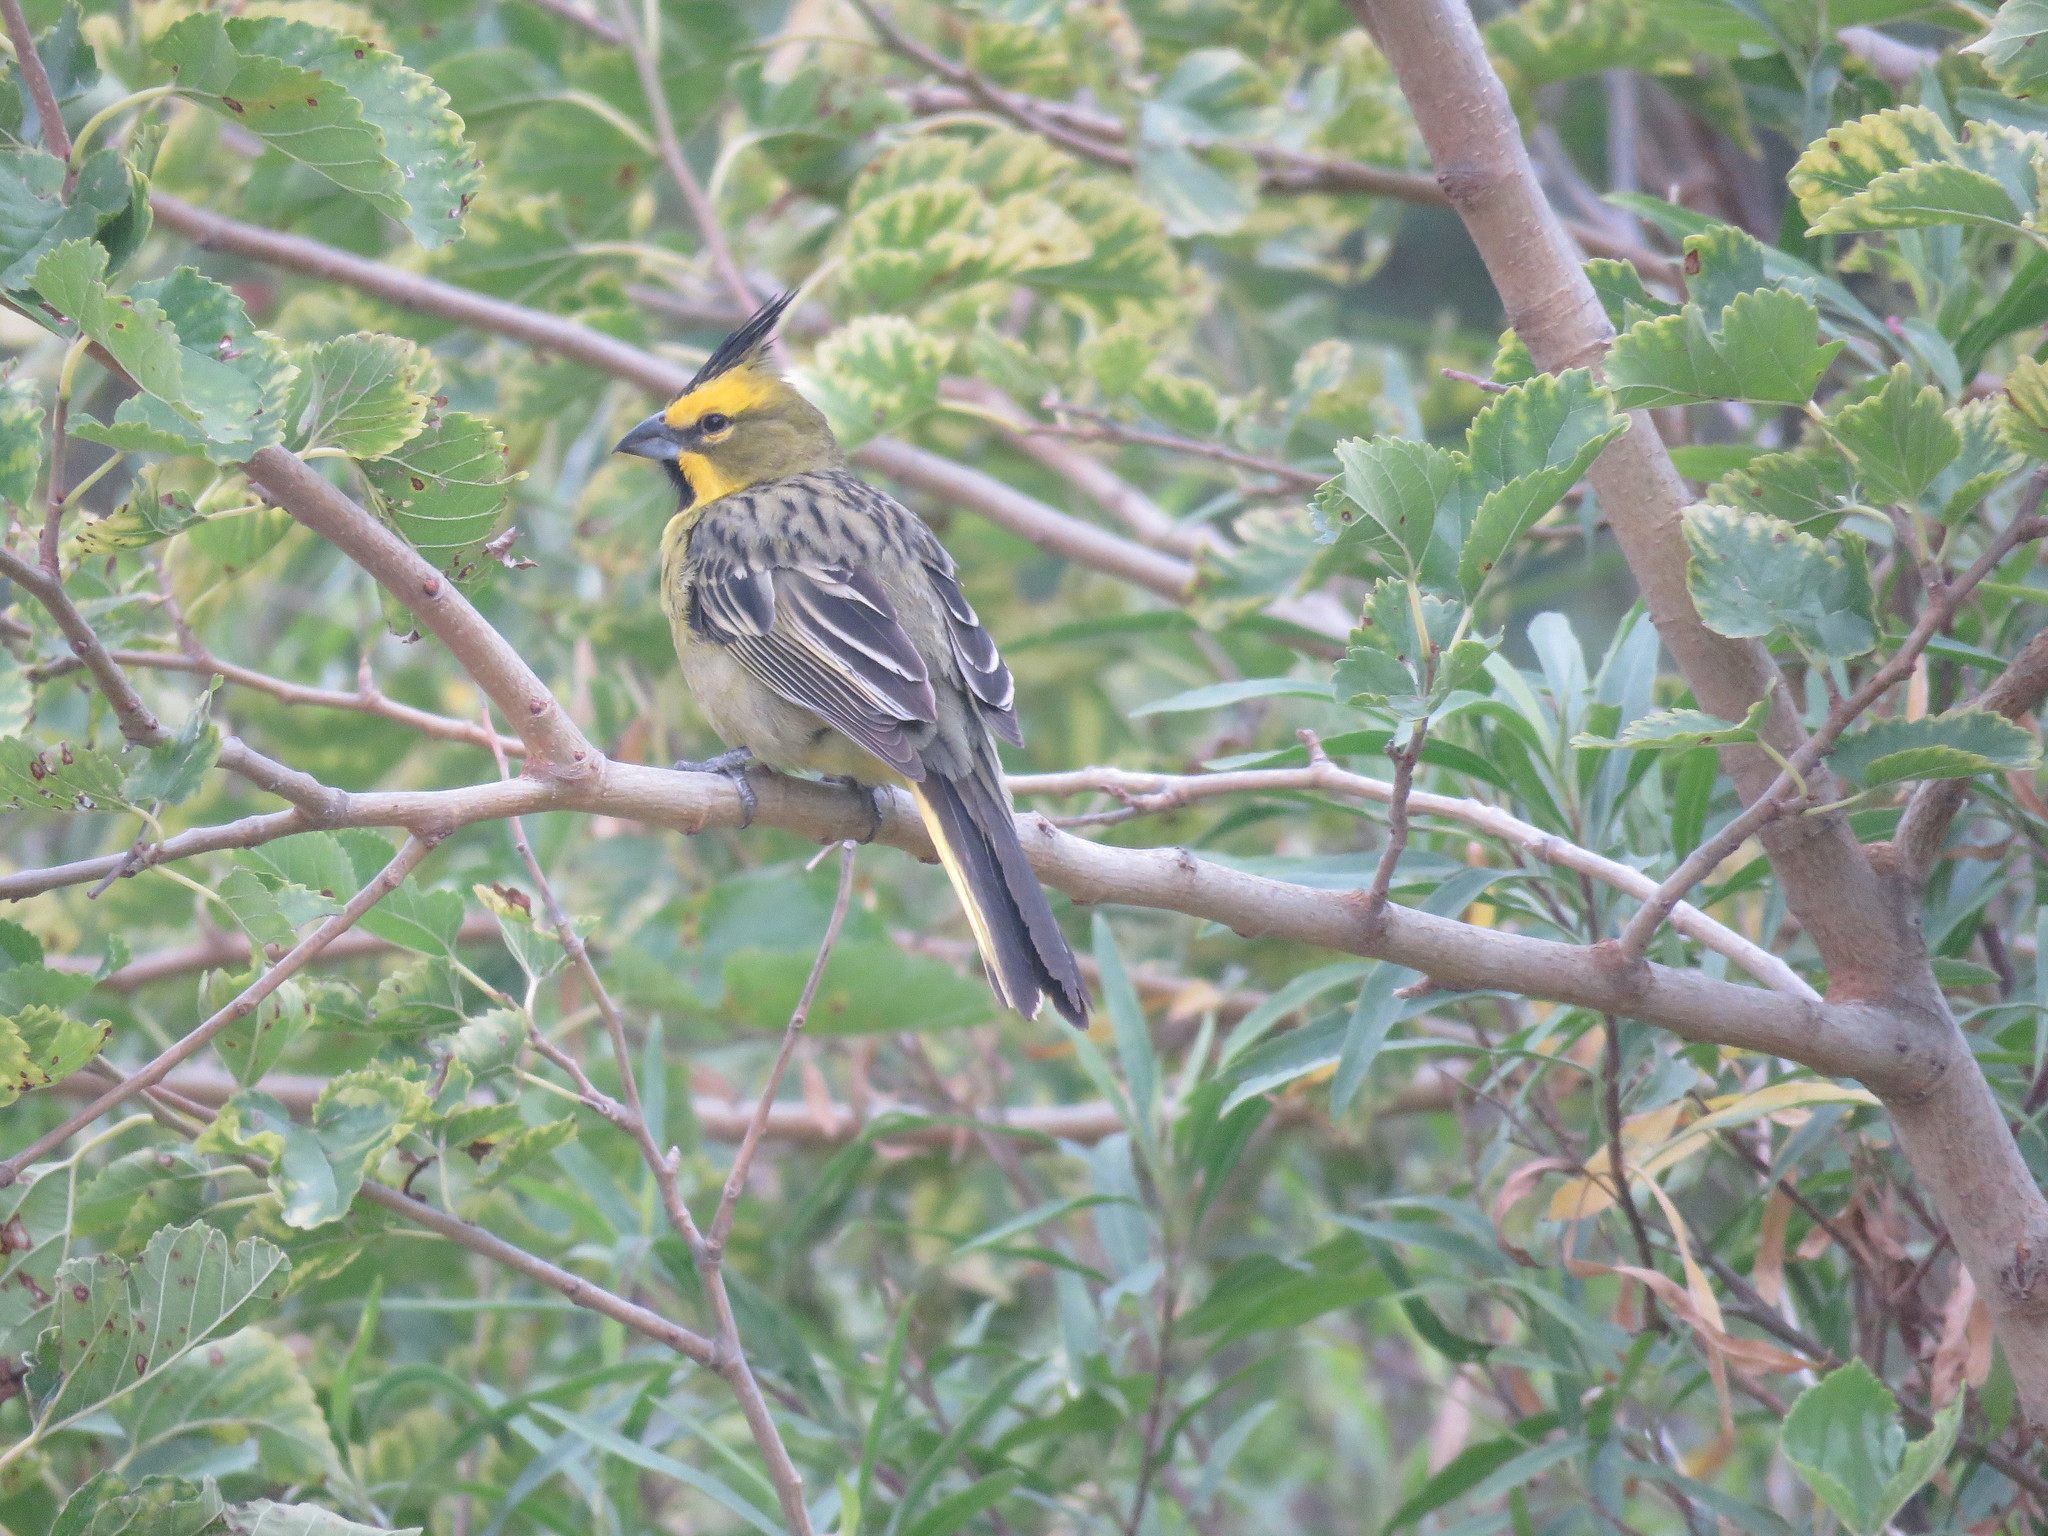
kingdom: Animalia
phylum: Chordata
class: Aves
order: Passeriformes
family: Thraupidae
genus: Gubernatrix
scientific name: Gubernatrix cristata
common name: Yellow cardinal
